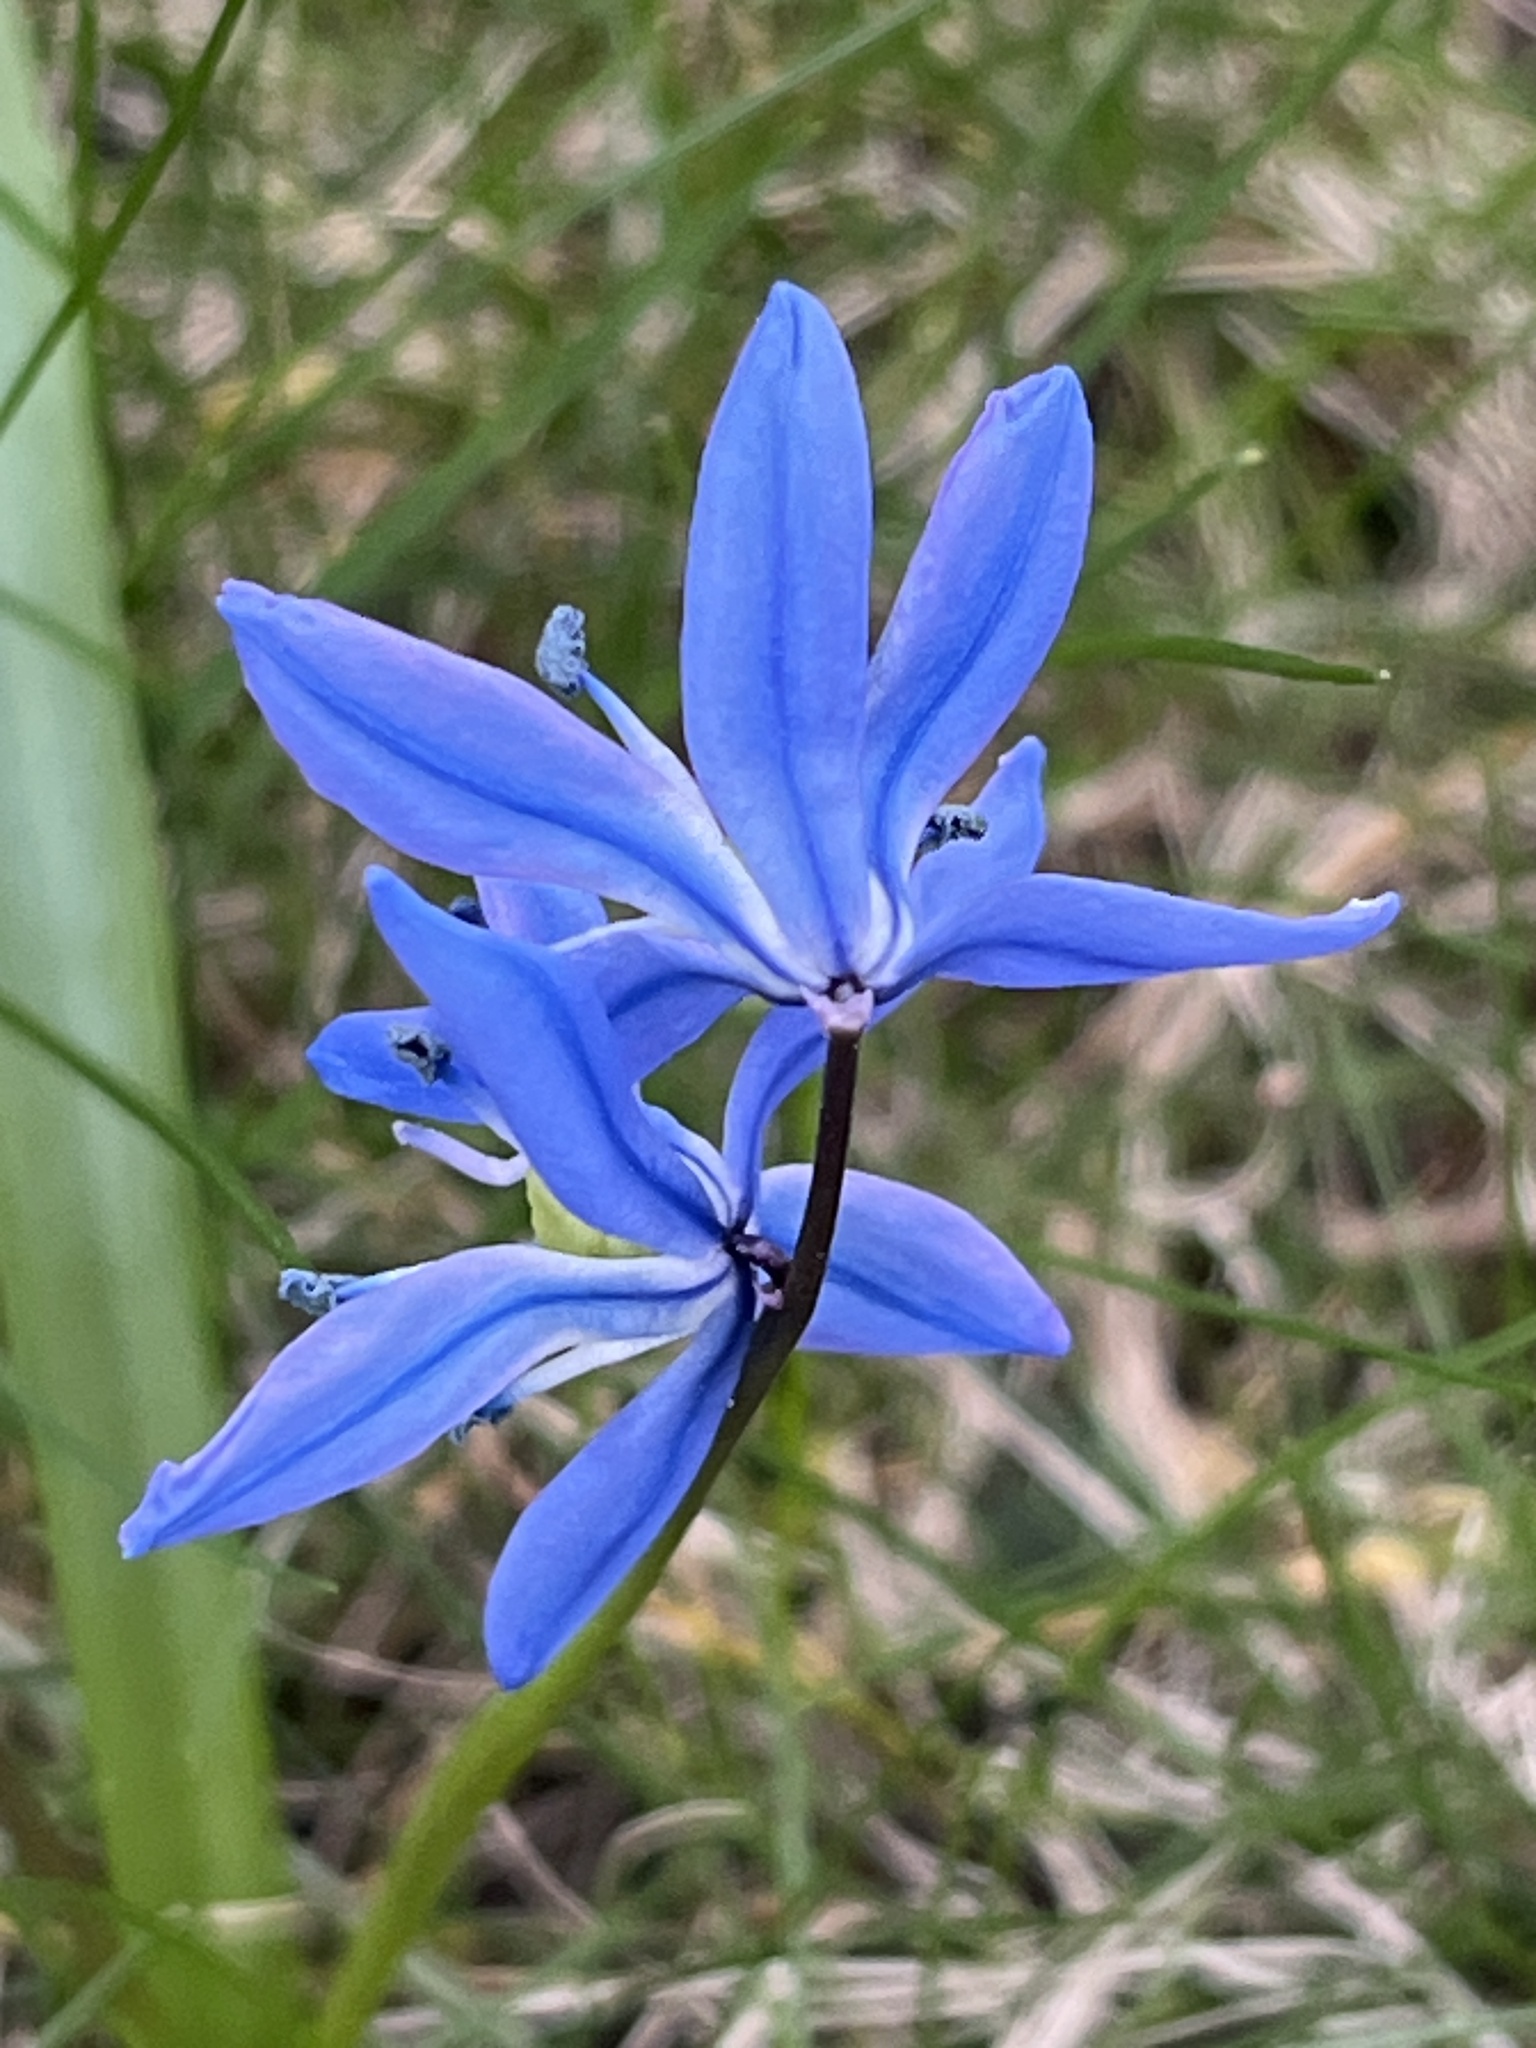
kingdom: Plantae
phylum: Tracheophyta
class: Liliopsida
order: Asparagales
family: Asparagaceae
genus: Scilla
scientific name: Scilla siberica
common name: Siberian squill
